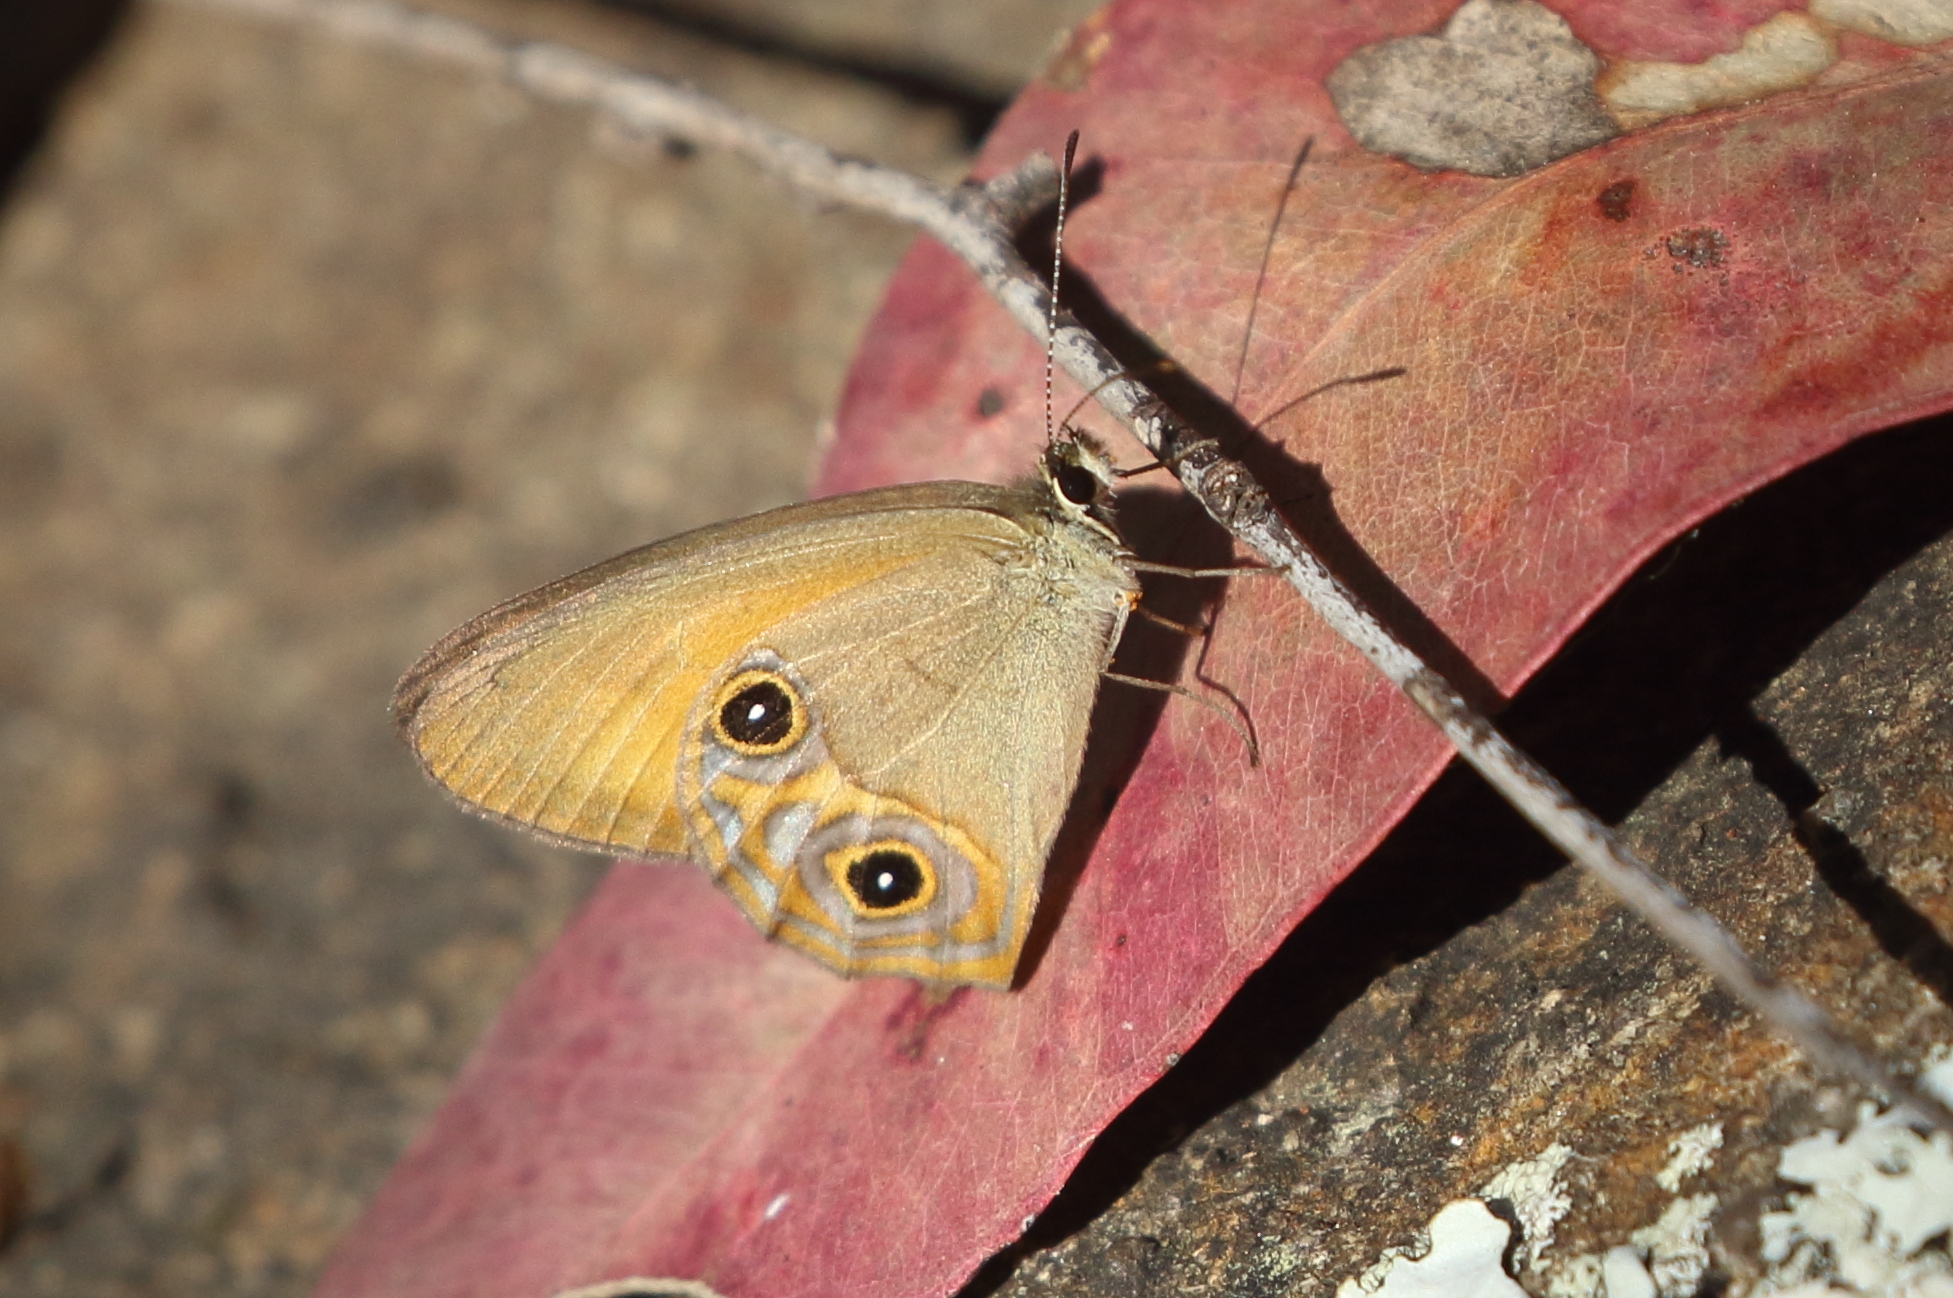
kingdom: Animalia
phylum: Arthropoda
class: Insecta
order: Lepidoptera
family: Nymphalidae
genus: Hypocysta
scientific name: Hypocysta adiante
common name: Orange ringlet
